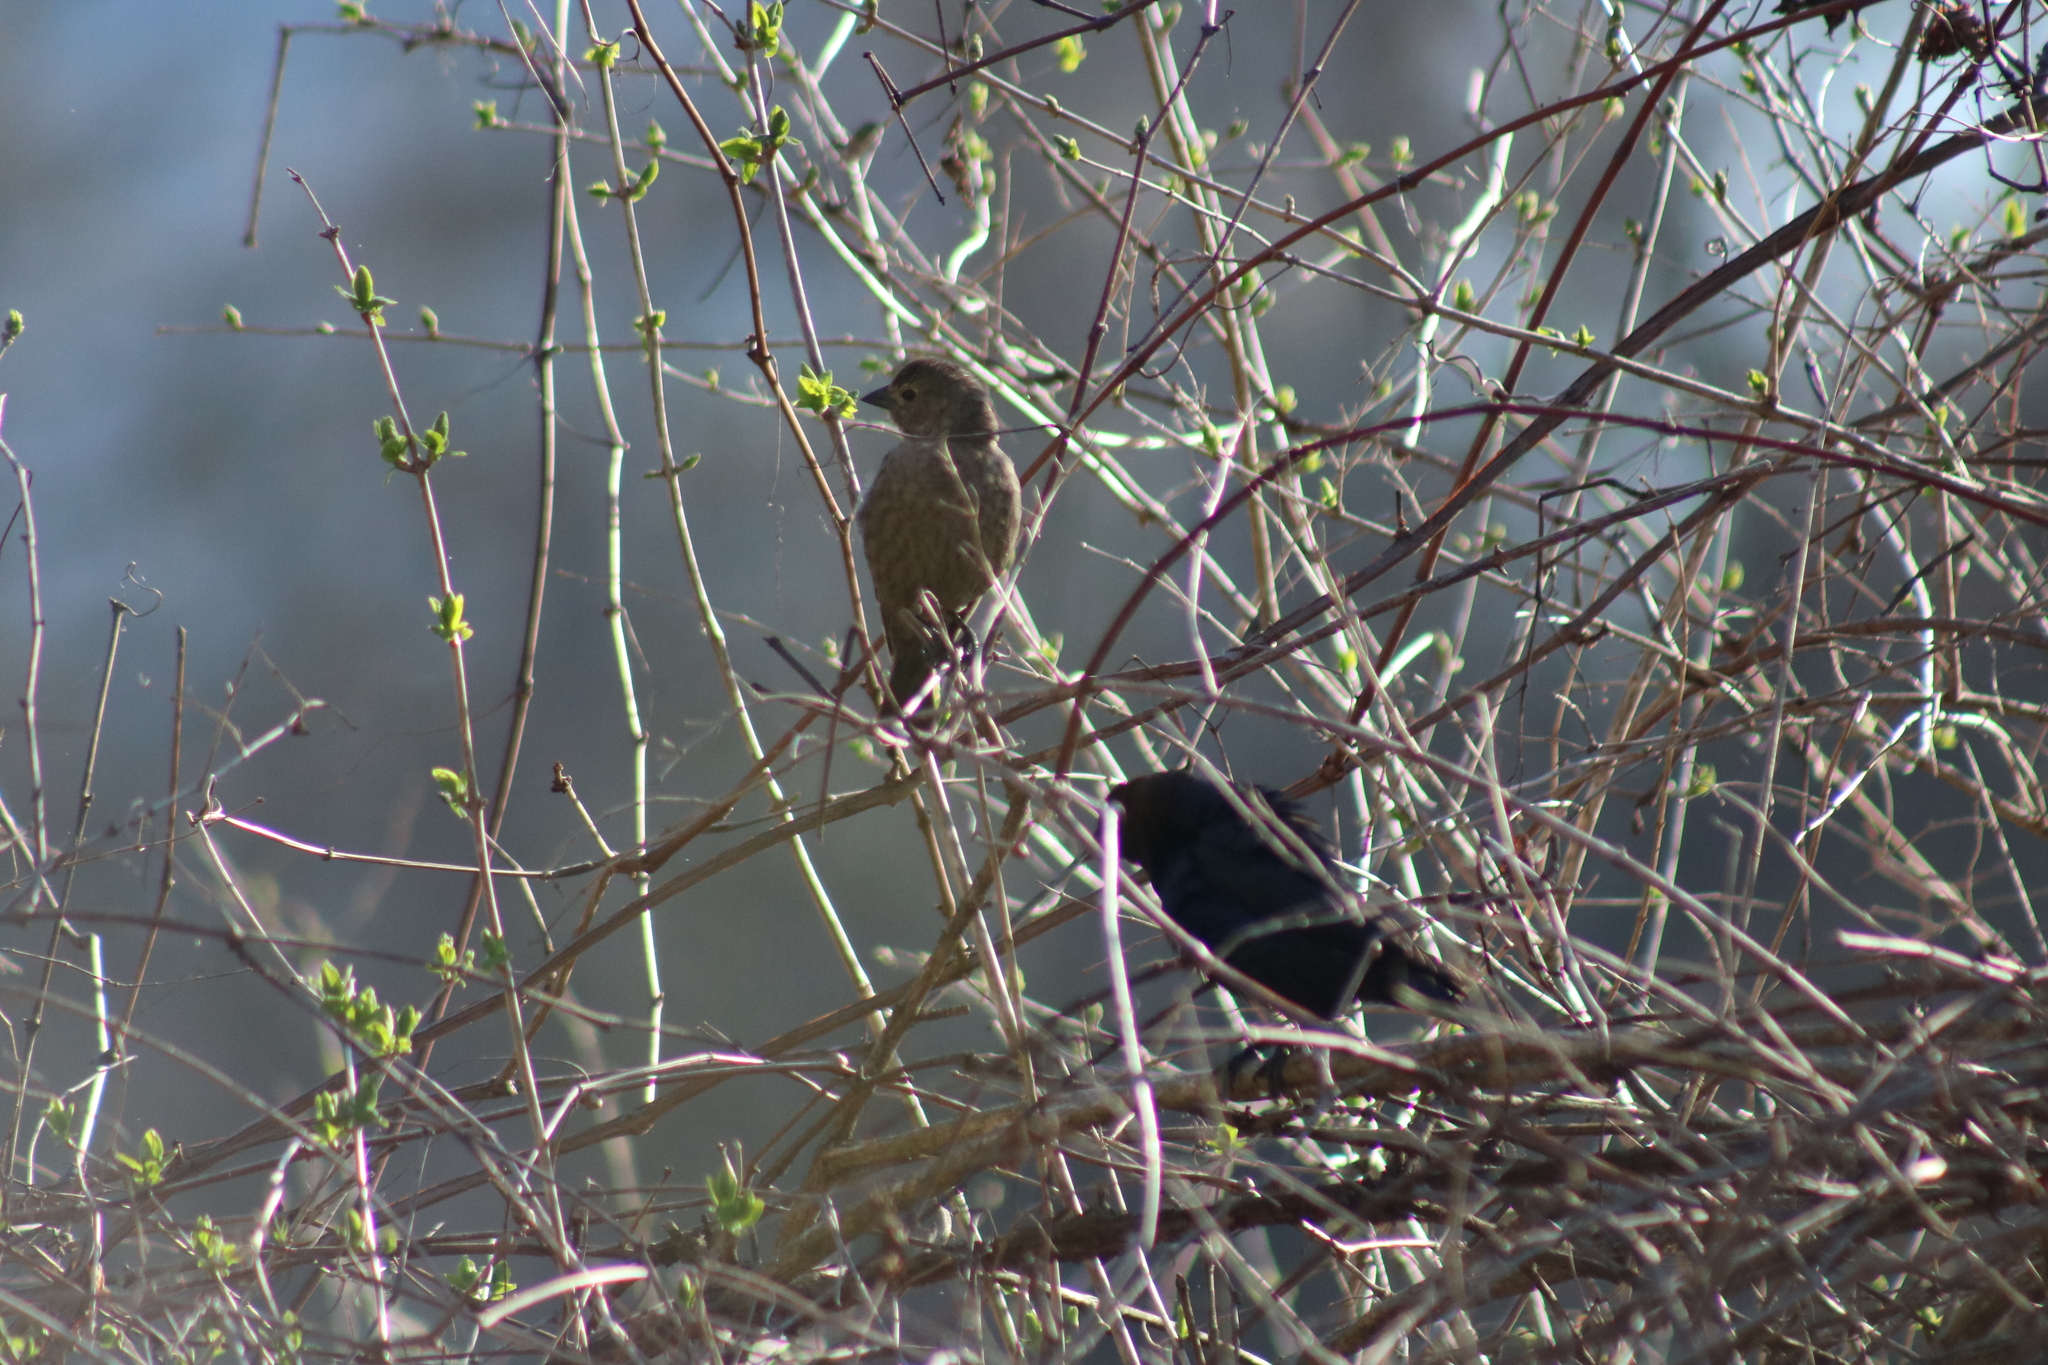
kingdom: Animalia
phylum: Chordata
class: Aves
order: Passeriformes
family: Icteridae
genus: Molothrus
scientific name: Molothrus ater
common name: Brown-headed cowbird
